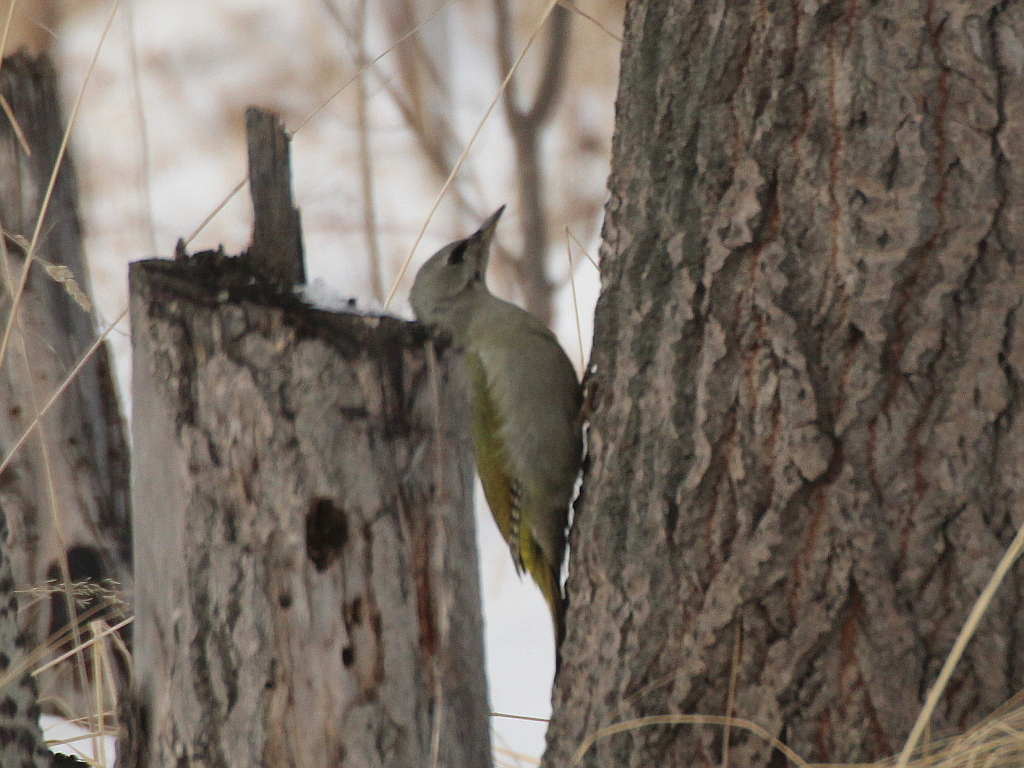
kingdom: Animalia
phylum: Chordata
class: Aves
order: Piciformes
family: Picidae
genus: Picus
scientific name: Picus canus
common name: Grey-headed woodpecker
